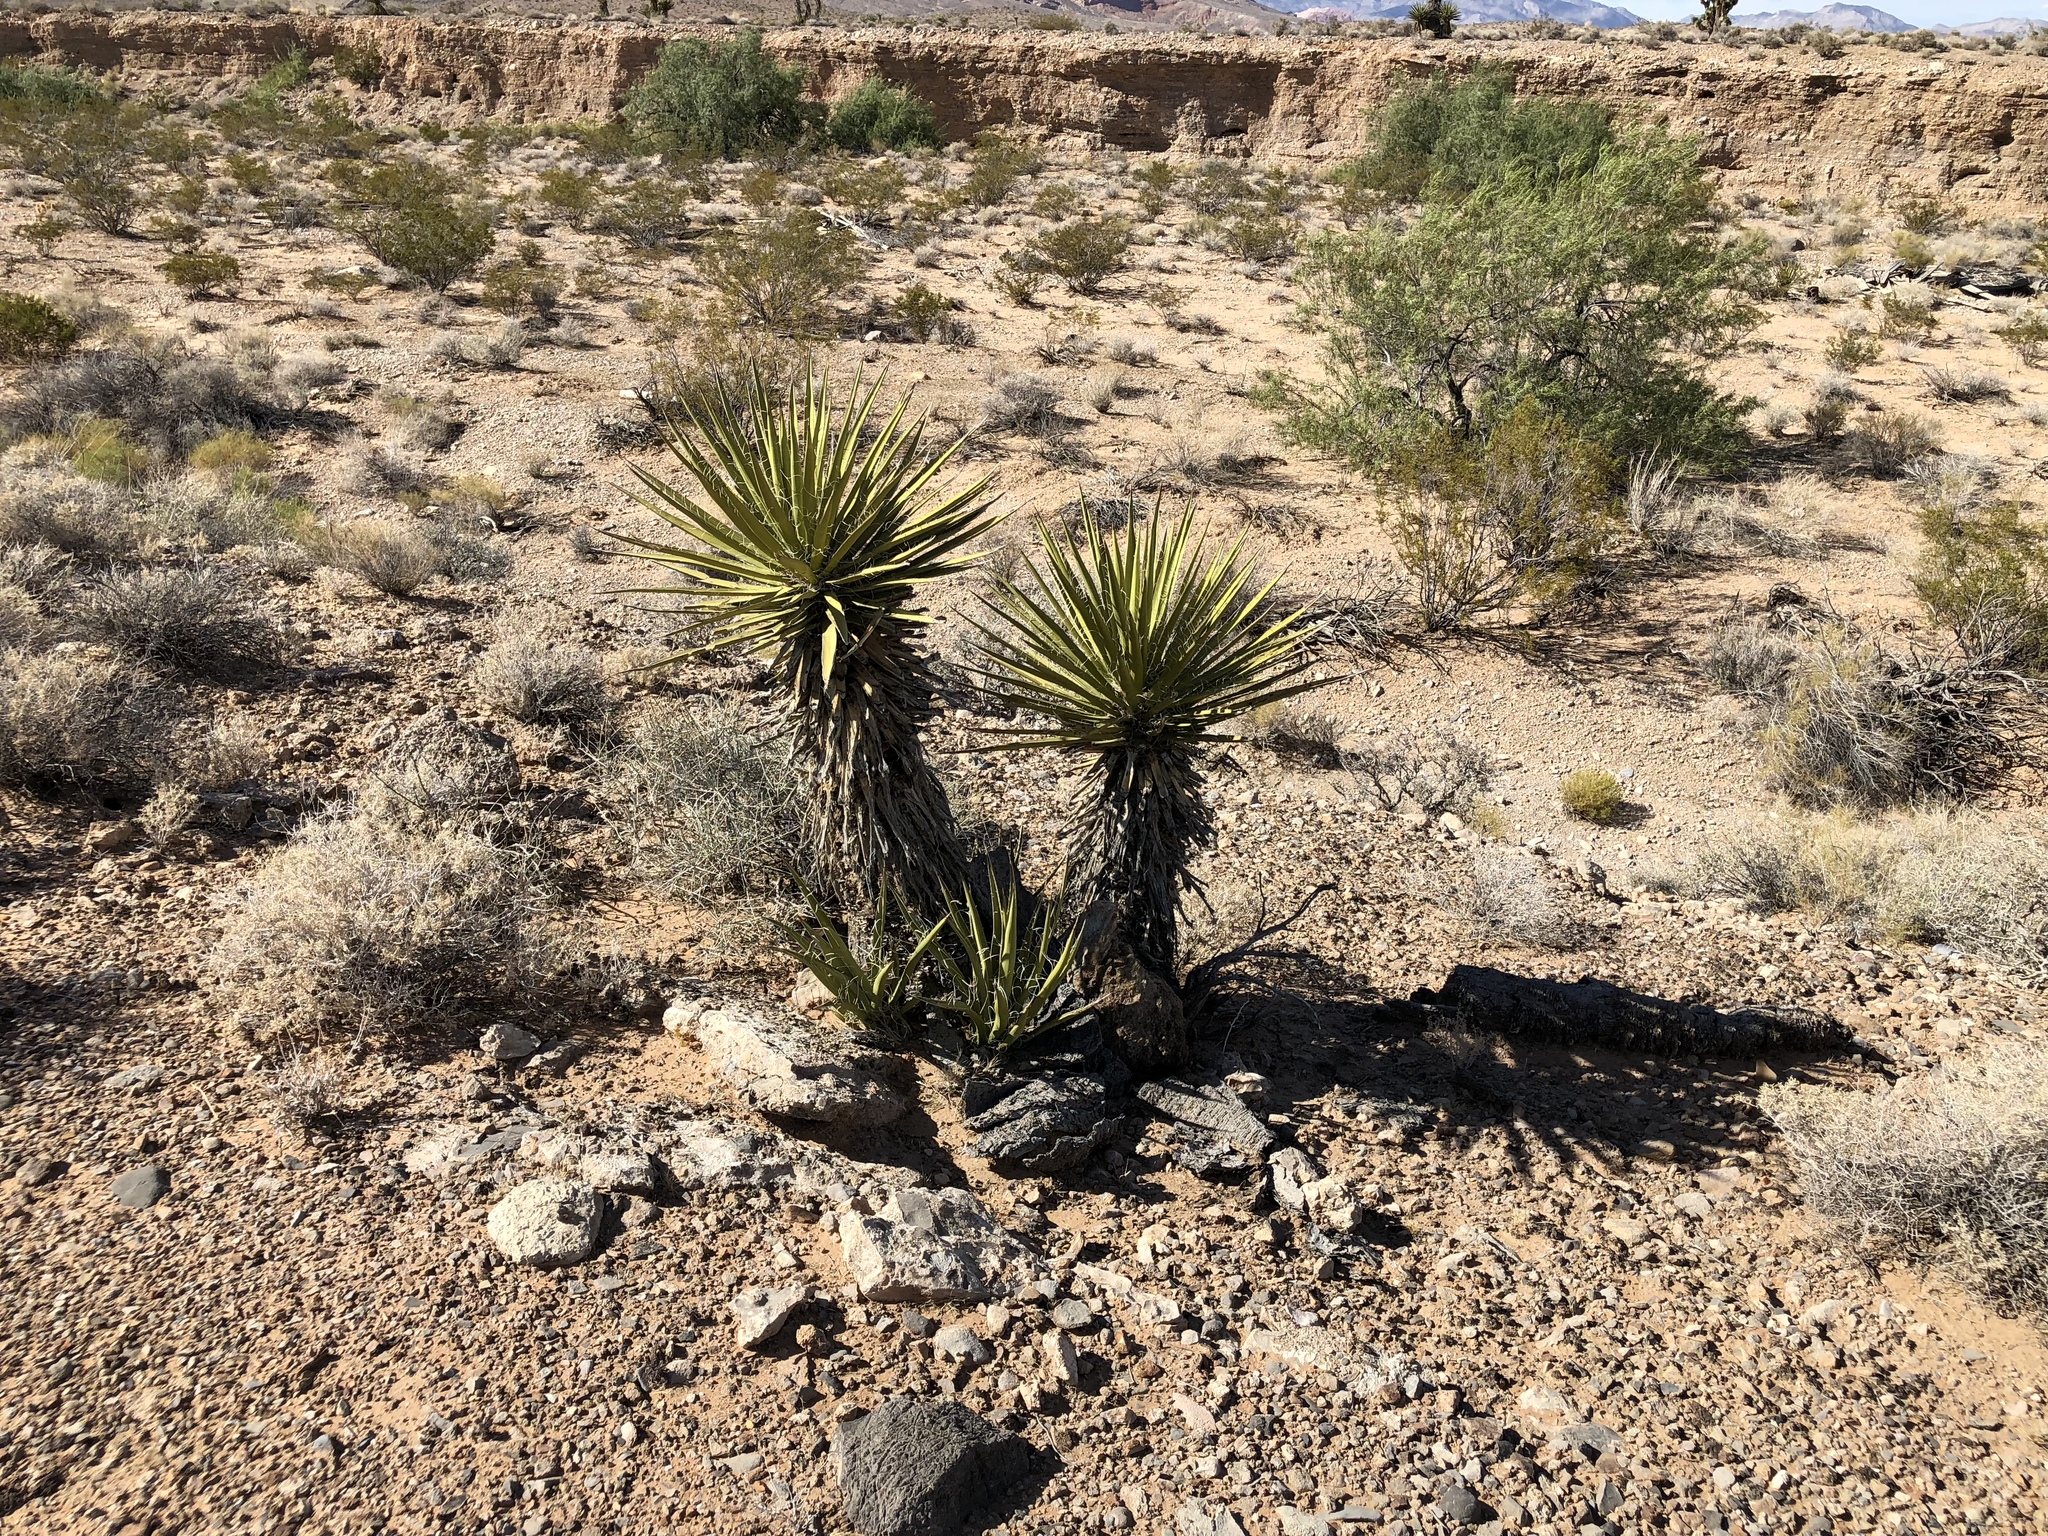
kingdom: Plantae
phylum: Tracheophyta
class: Liliopsida
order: Asparagales
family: Asparagaceae
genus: Yucca
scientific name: Yucca schidigera
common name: Mojave yucca
